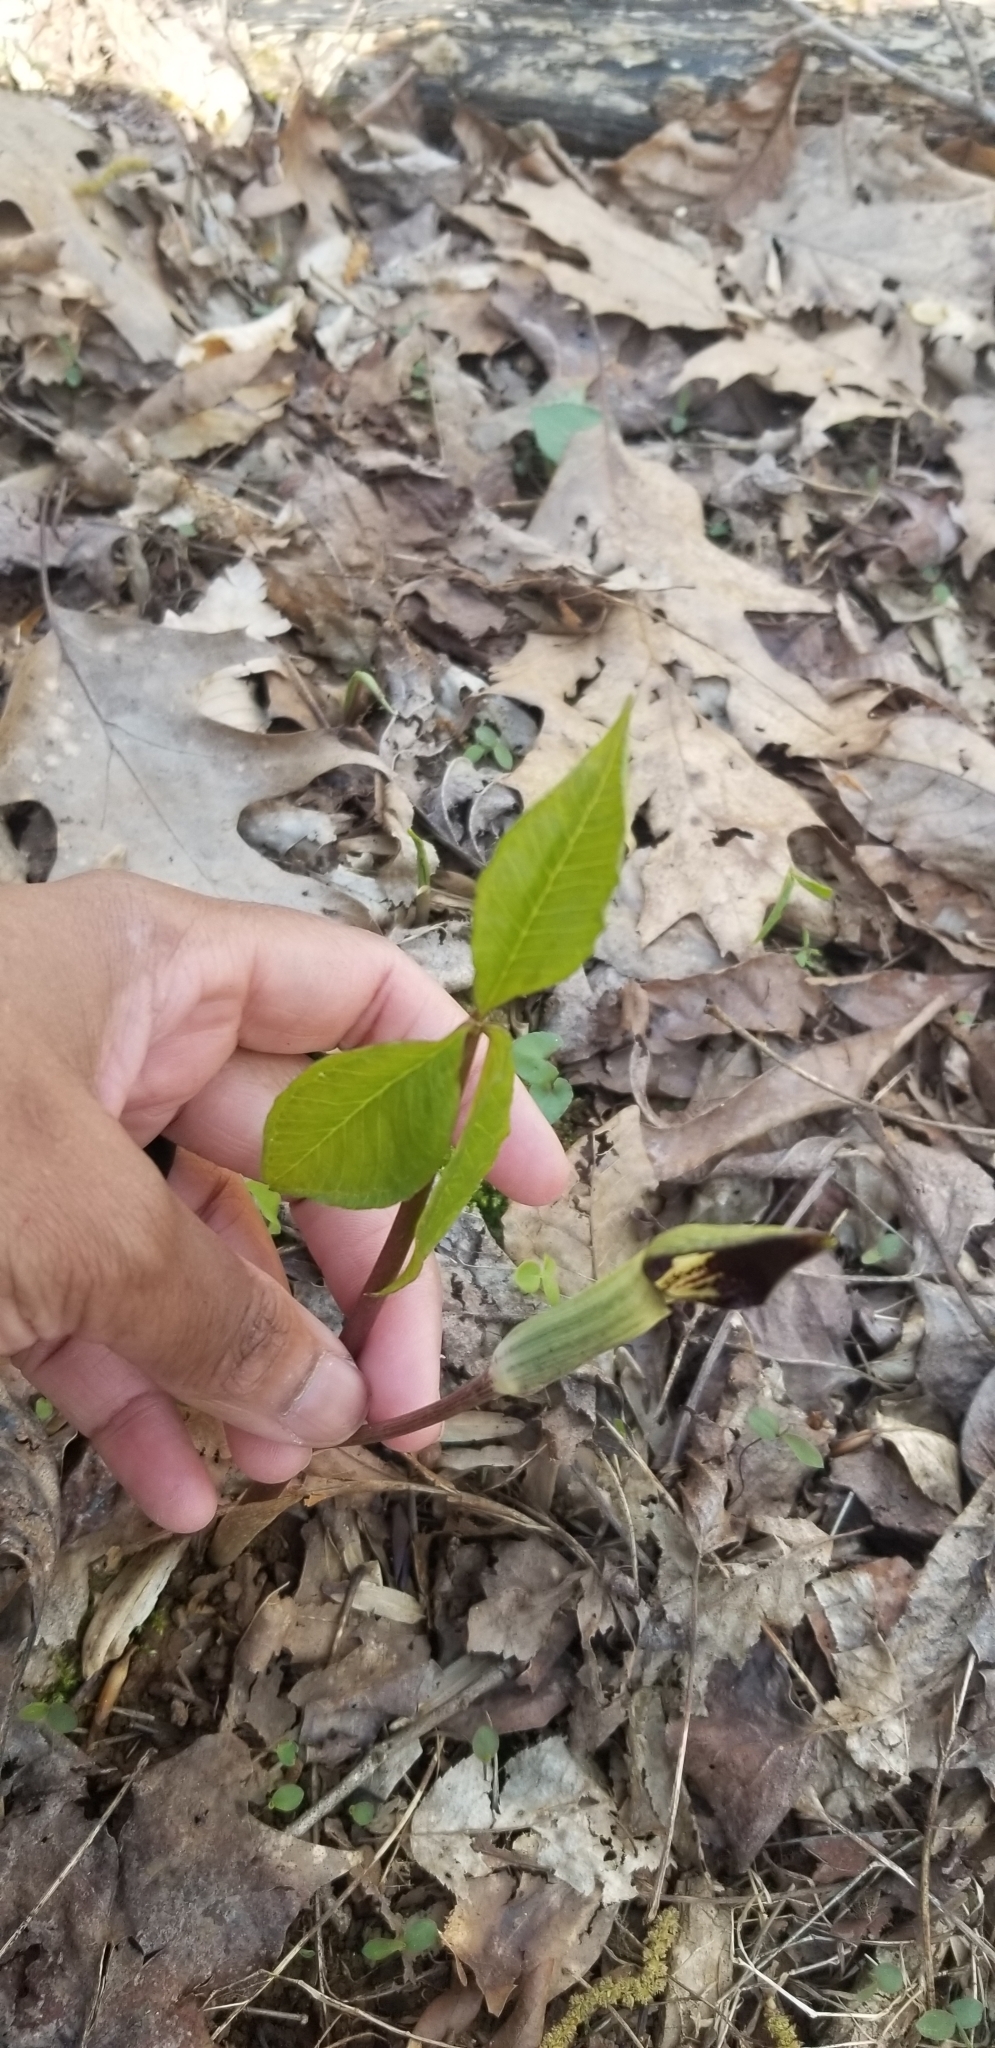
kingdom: Plantae
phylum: Tracheophyta
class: Liliopsida
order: Alismatales
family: Araceae
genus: Arisaema
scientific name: Arisaema
